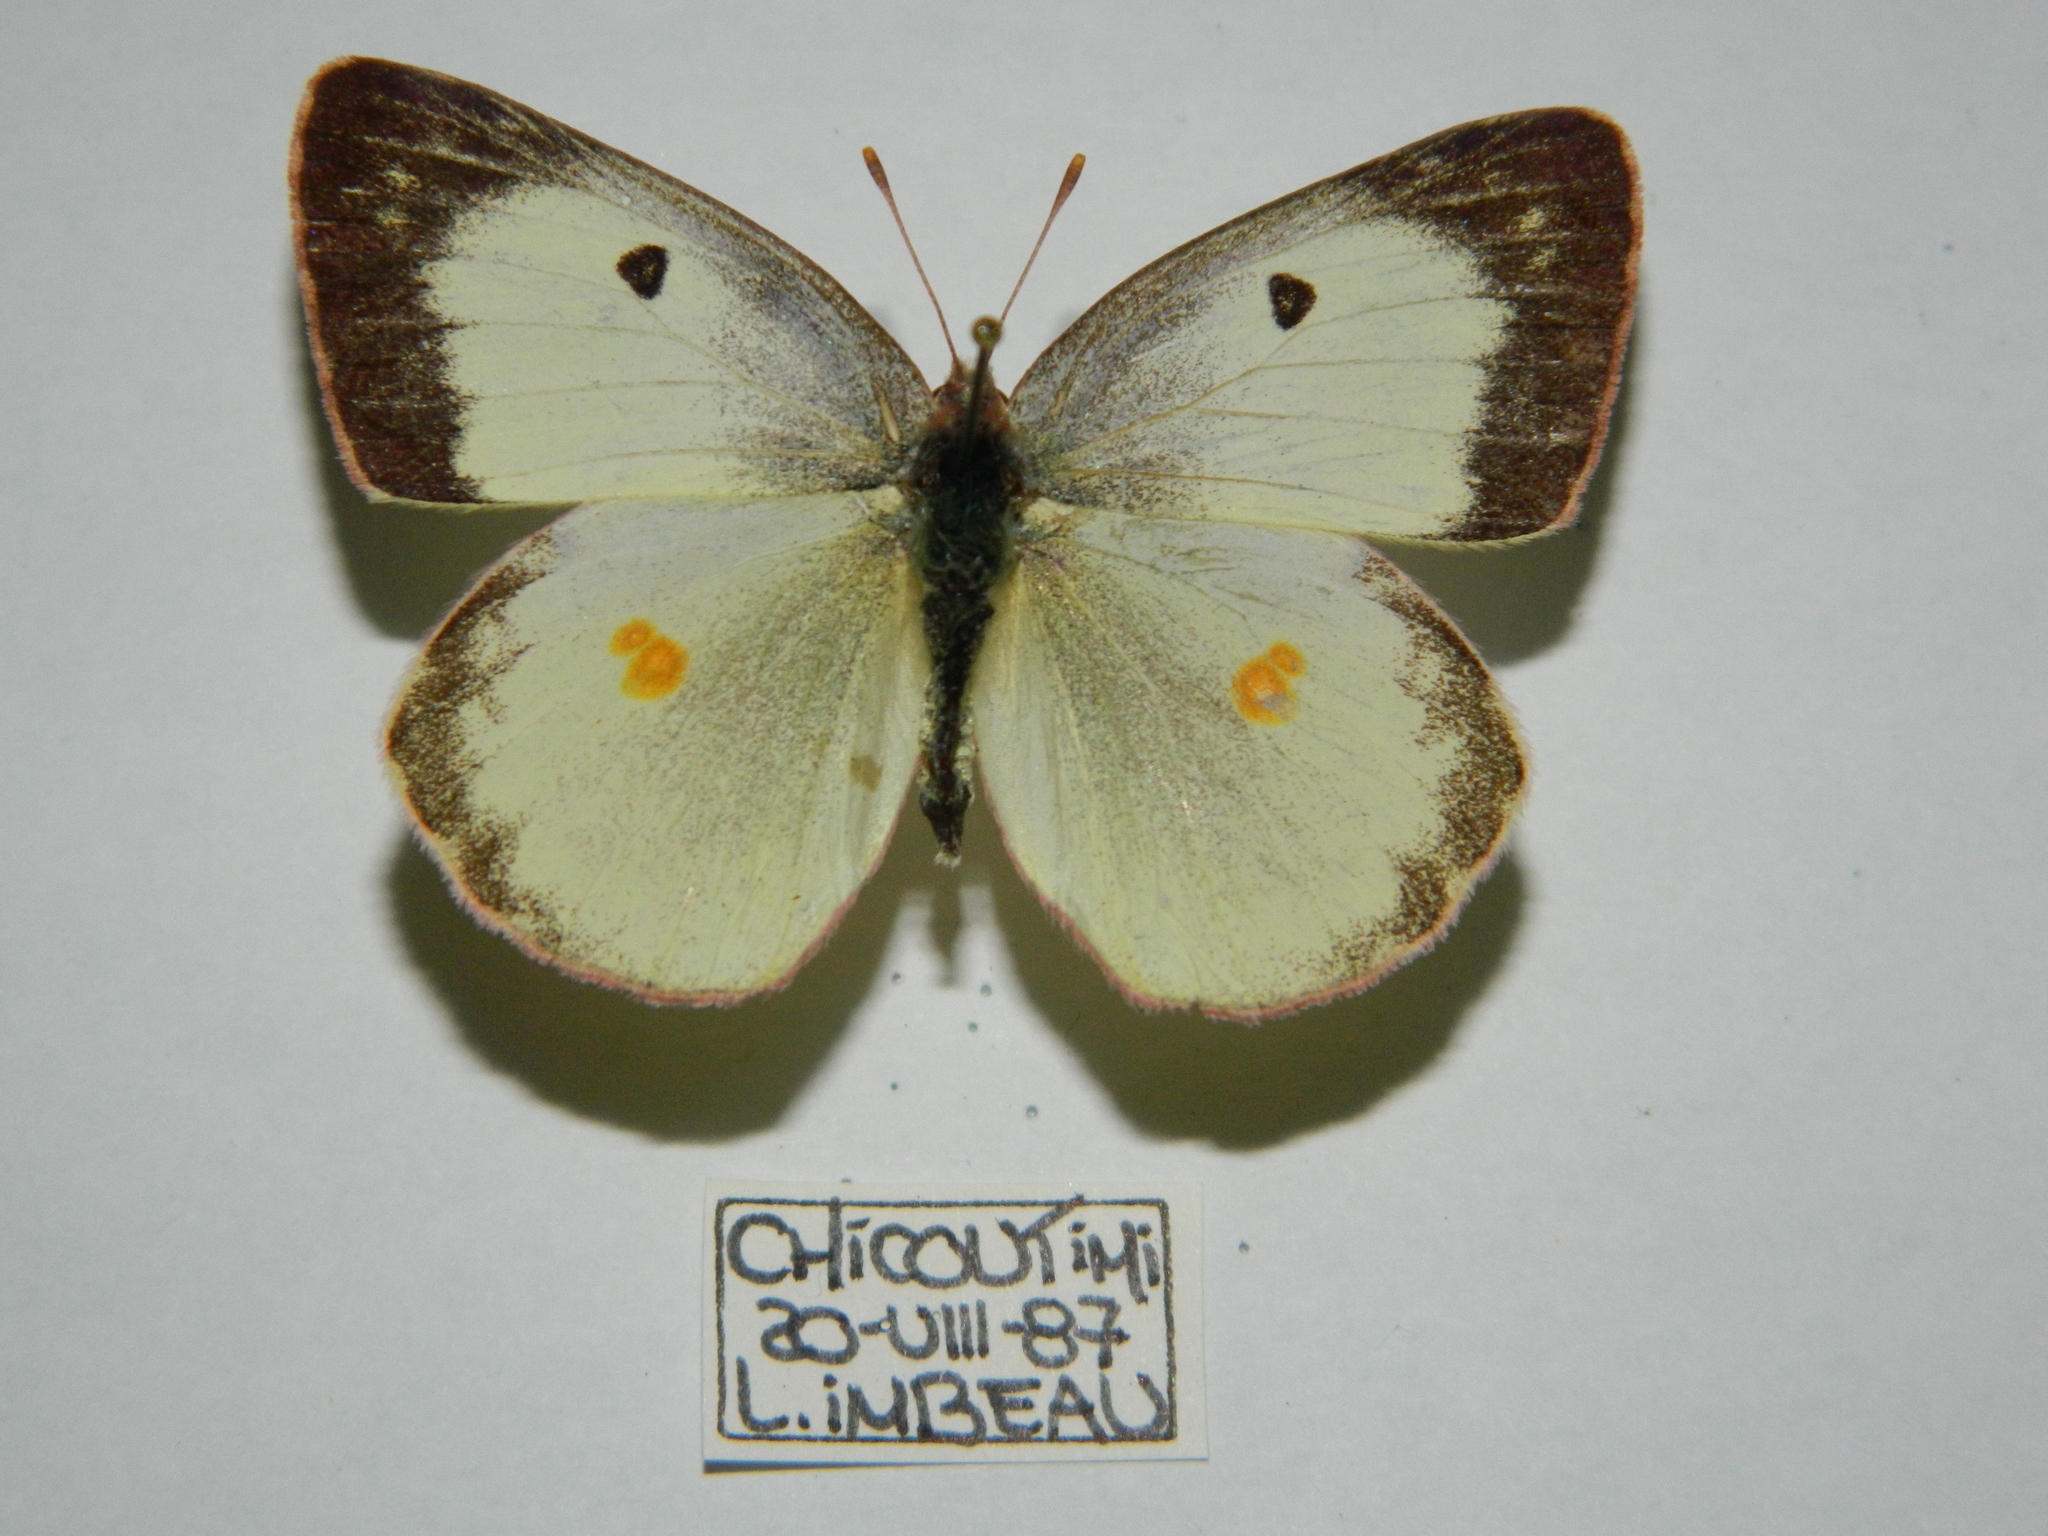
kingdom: Animalia
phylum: Arthropoda
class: Insecta
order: Lepidoptera
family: Pieridae
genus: Colias
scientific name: Colias philodice
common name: Clouded sulphur
